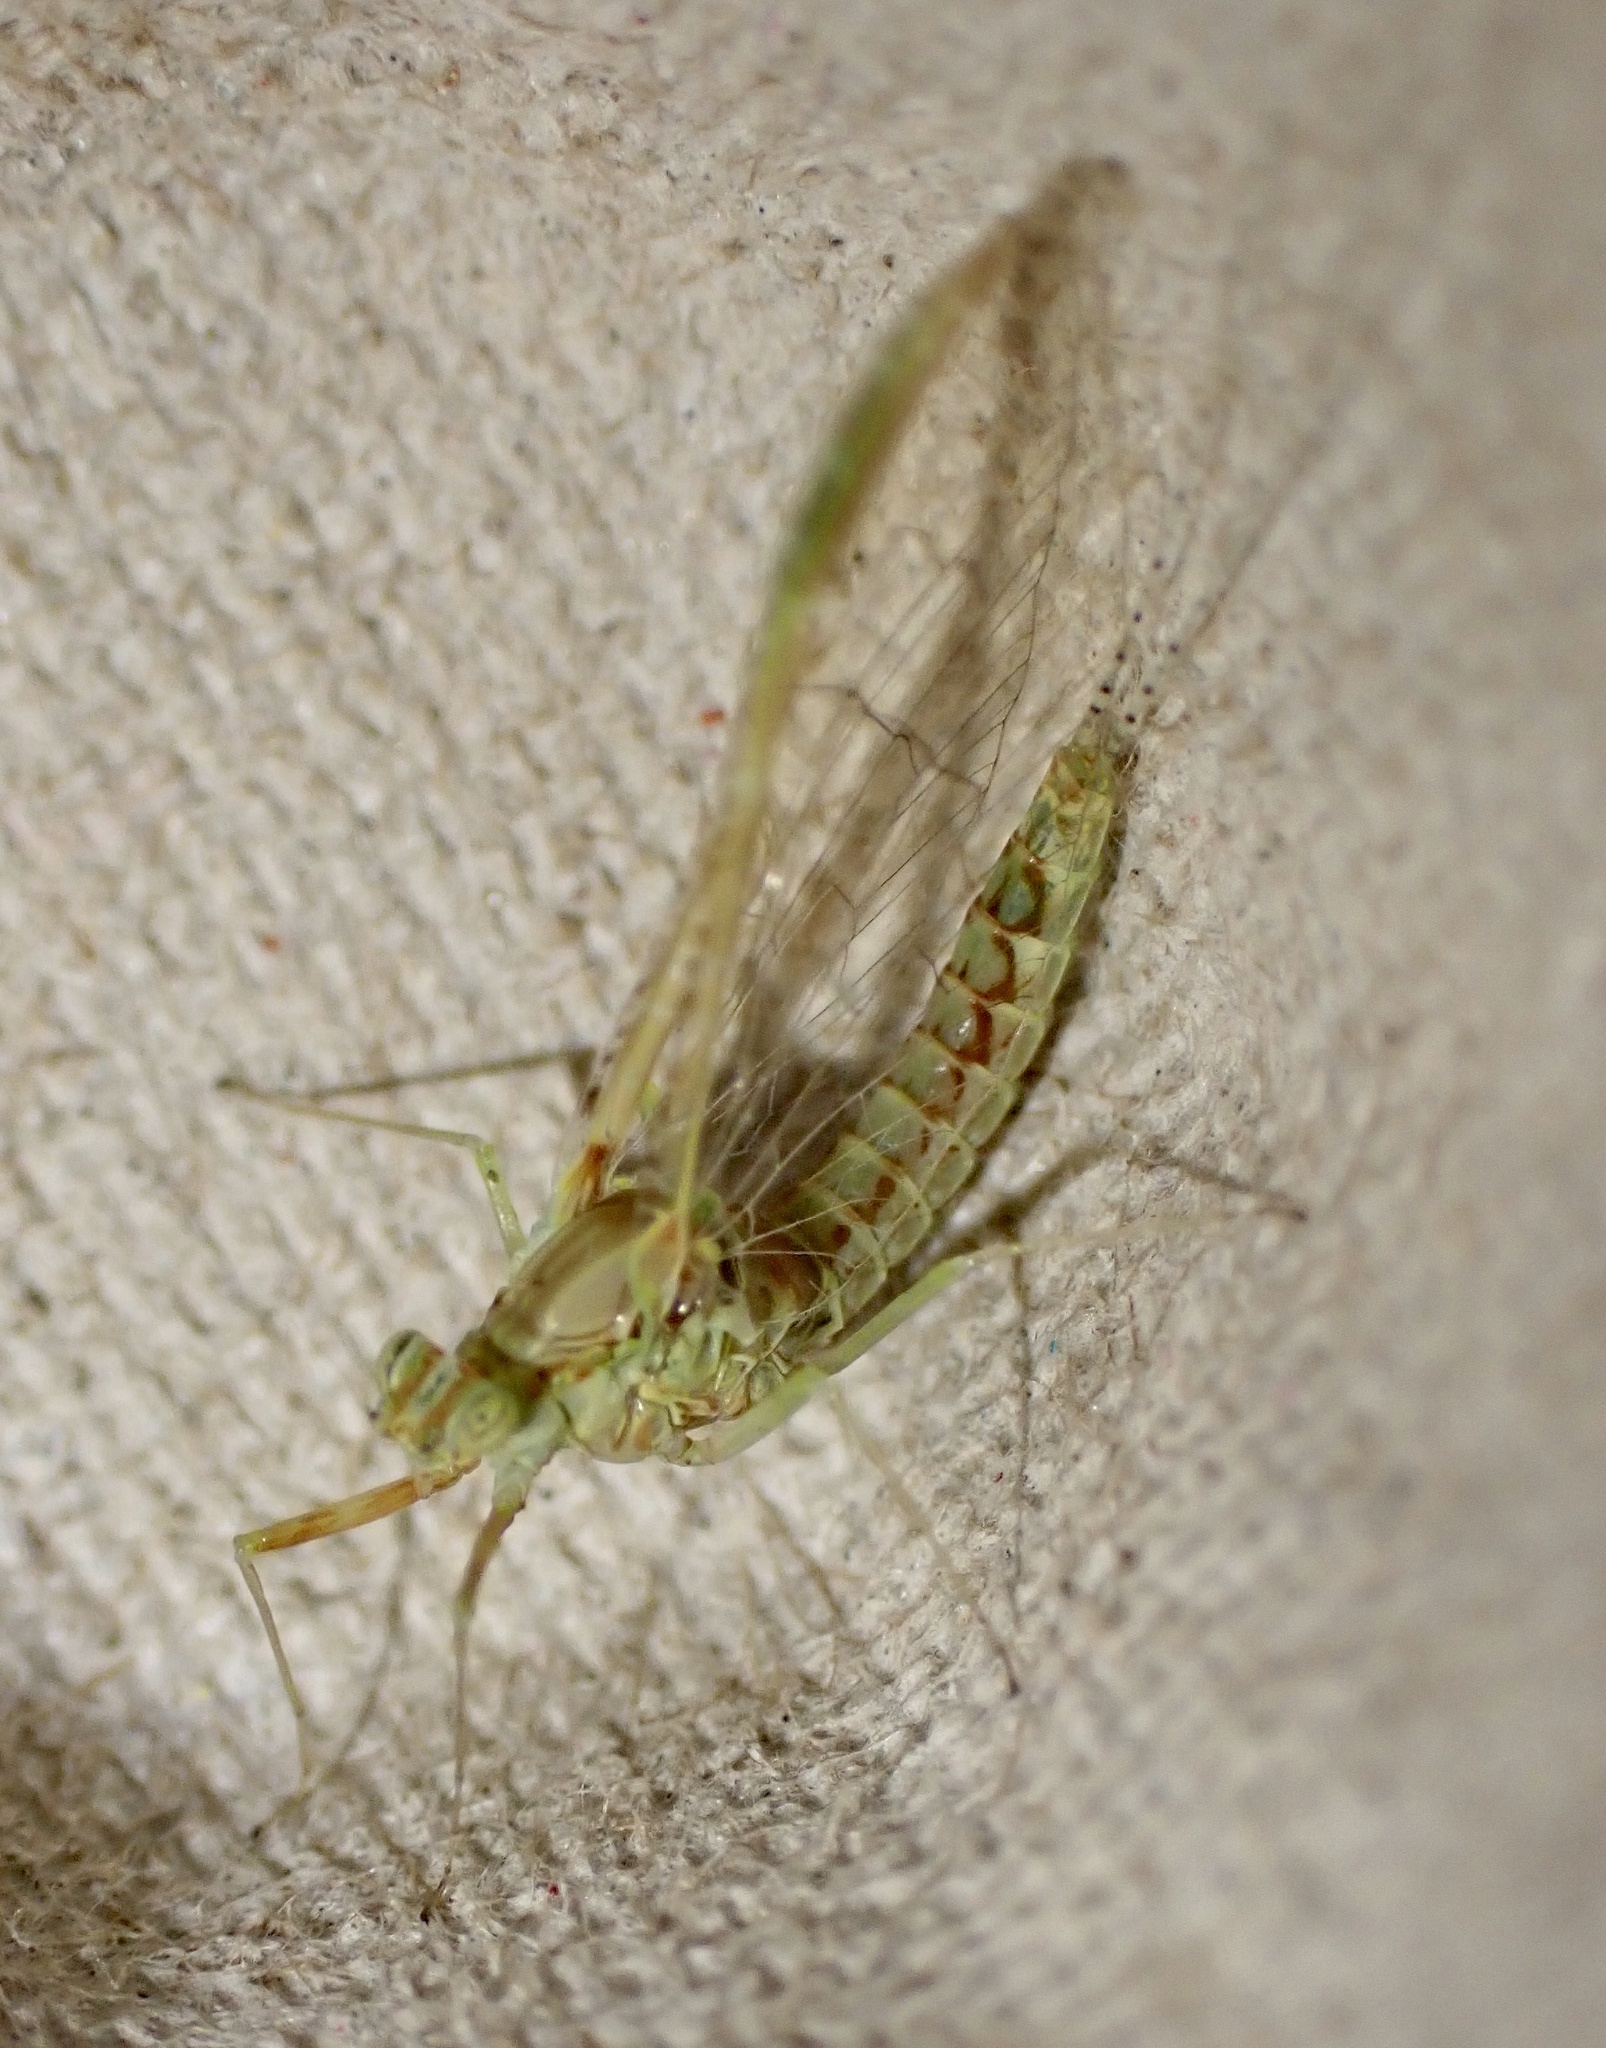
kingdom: Animalia
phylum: Arthropoda
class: Insecta
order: Ephemeroptera
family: Baetidae
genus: Cloeon
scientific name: Cloeon dipterum
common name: Pond olive
